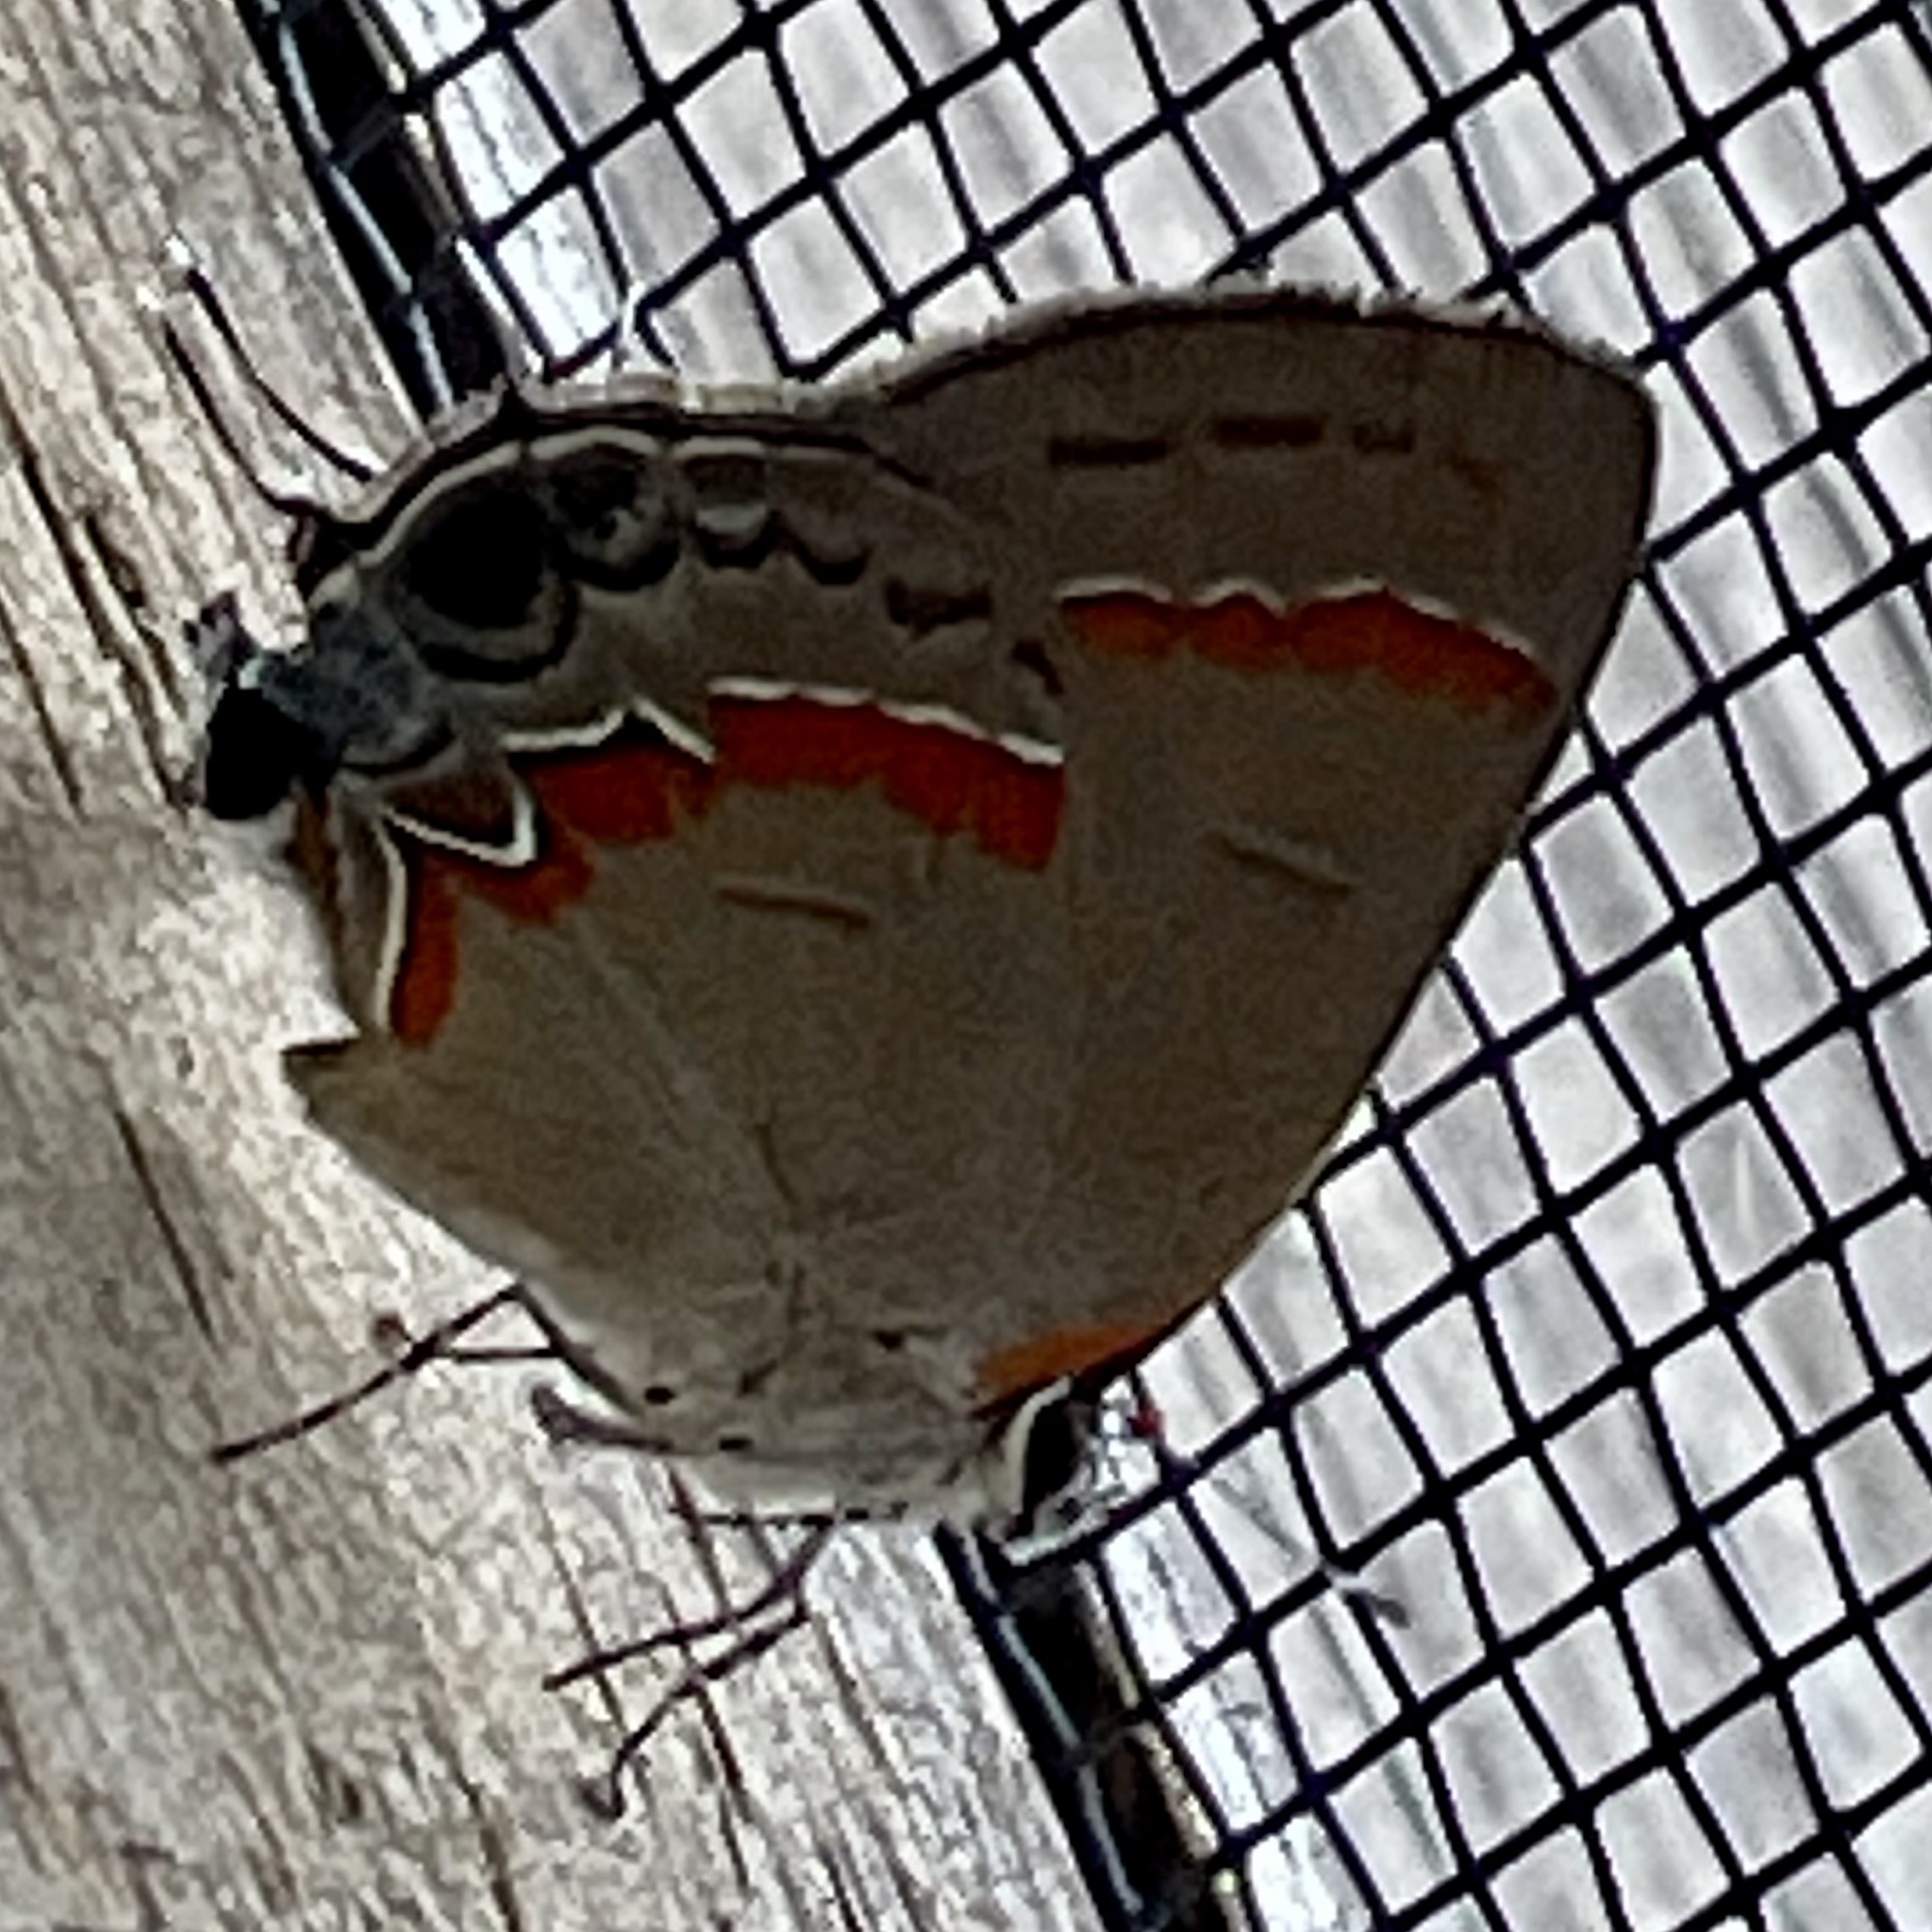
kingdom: Animalia
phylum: Arthropoda
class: Insecta
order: Lepidoptera
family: Lycaenidae
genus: Calycopis
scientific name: Calycopis cecrops
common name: Red-banded hairstreak
